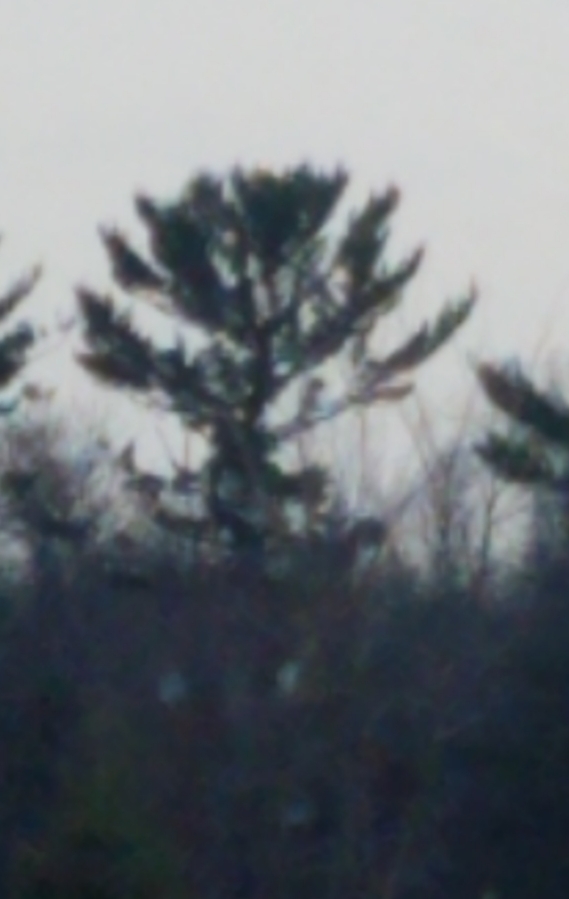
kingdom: Plantae
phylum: Tracheophyta
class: Pinopsida
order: Pinales
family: Pinaceae
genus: Pinus
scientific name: Pinus strobus
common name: Weymouth pine
